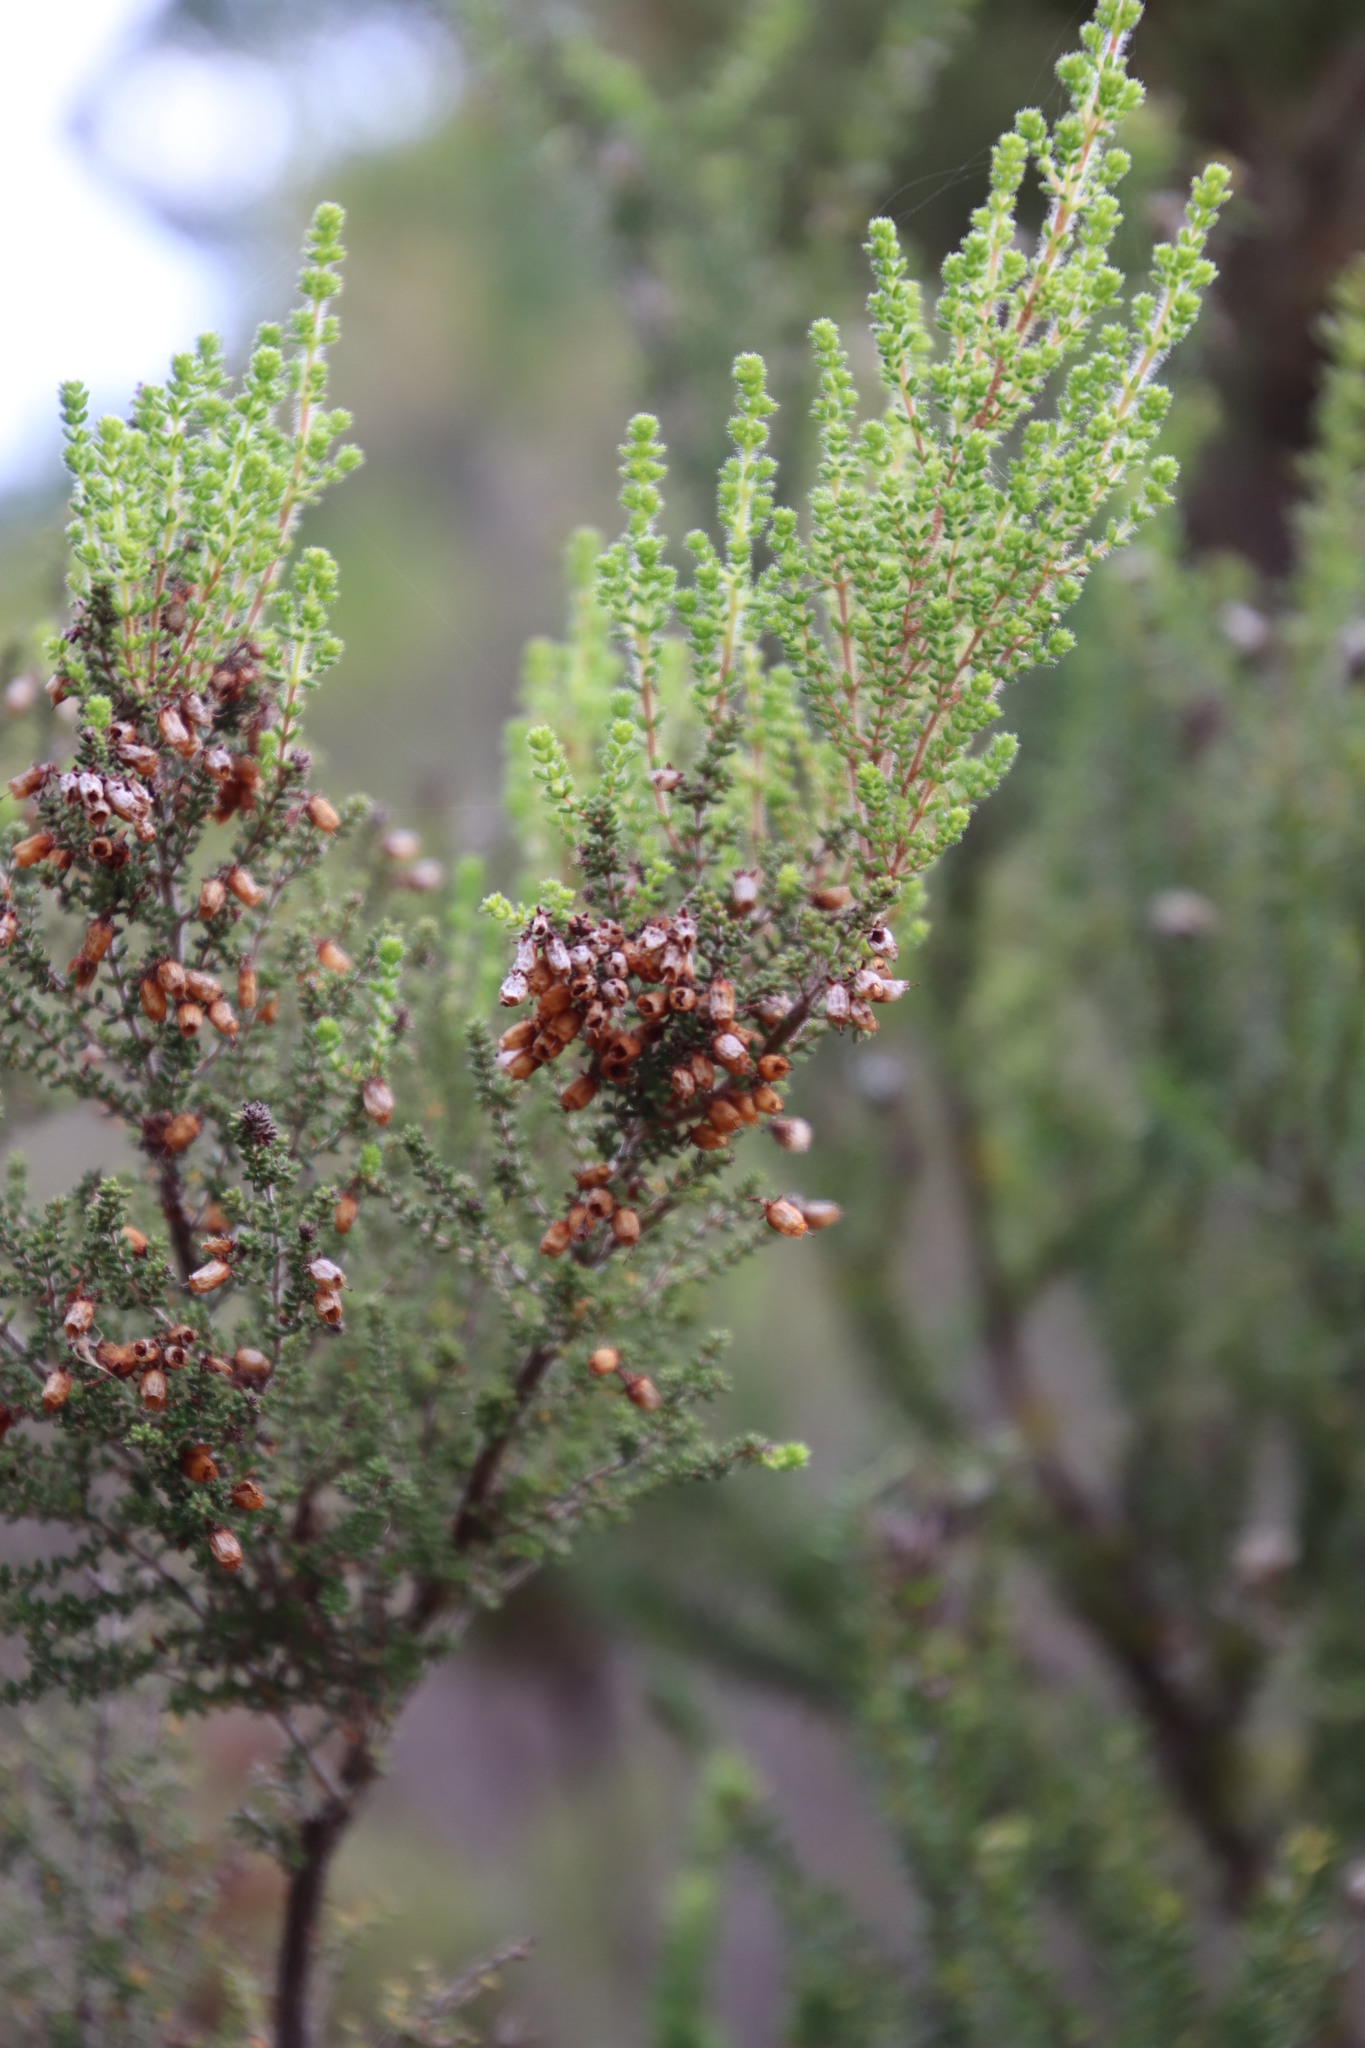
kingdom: Plantae
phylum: Tracheophyta
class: Magnoliopsida
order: Ericales
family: Ericaceae
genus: Erica
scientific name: Erica scabriuscula
